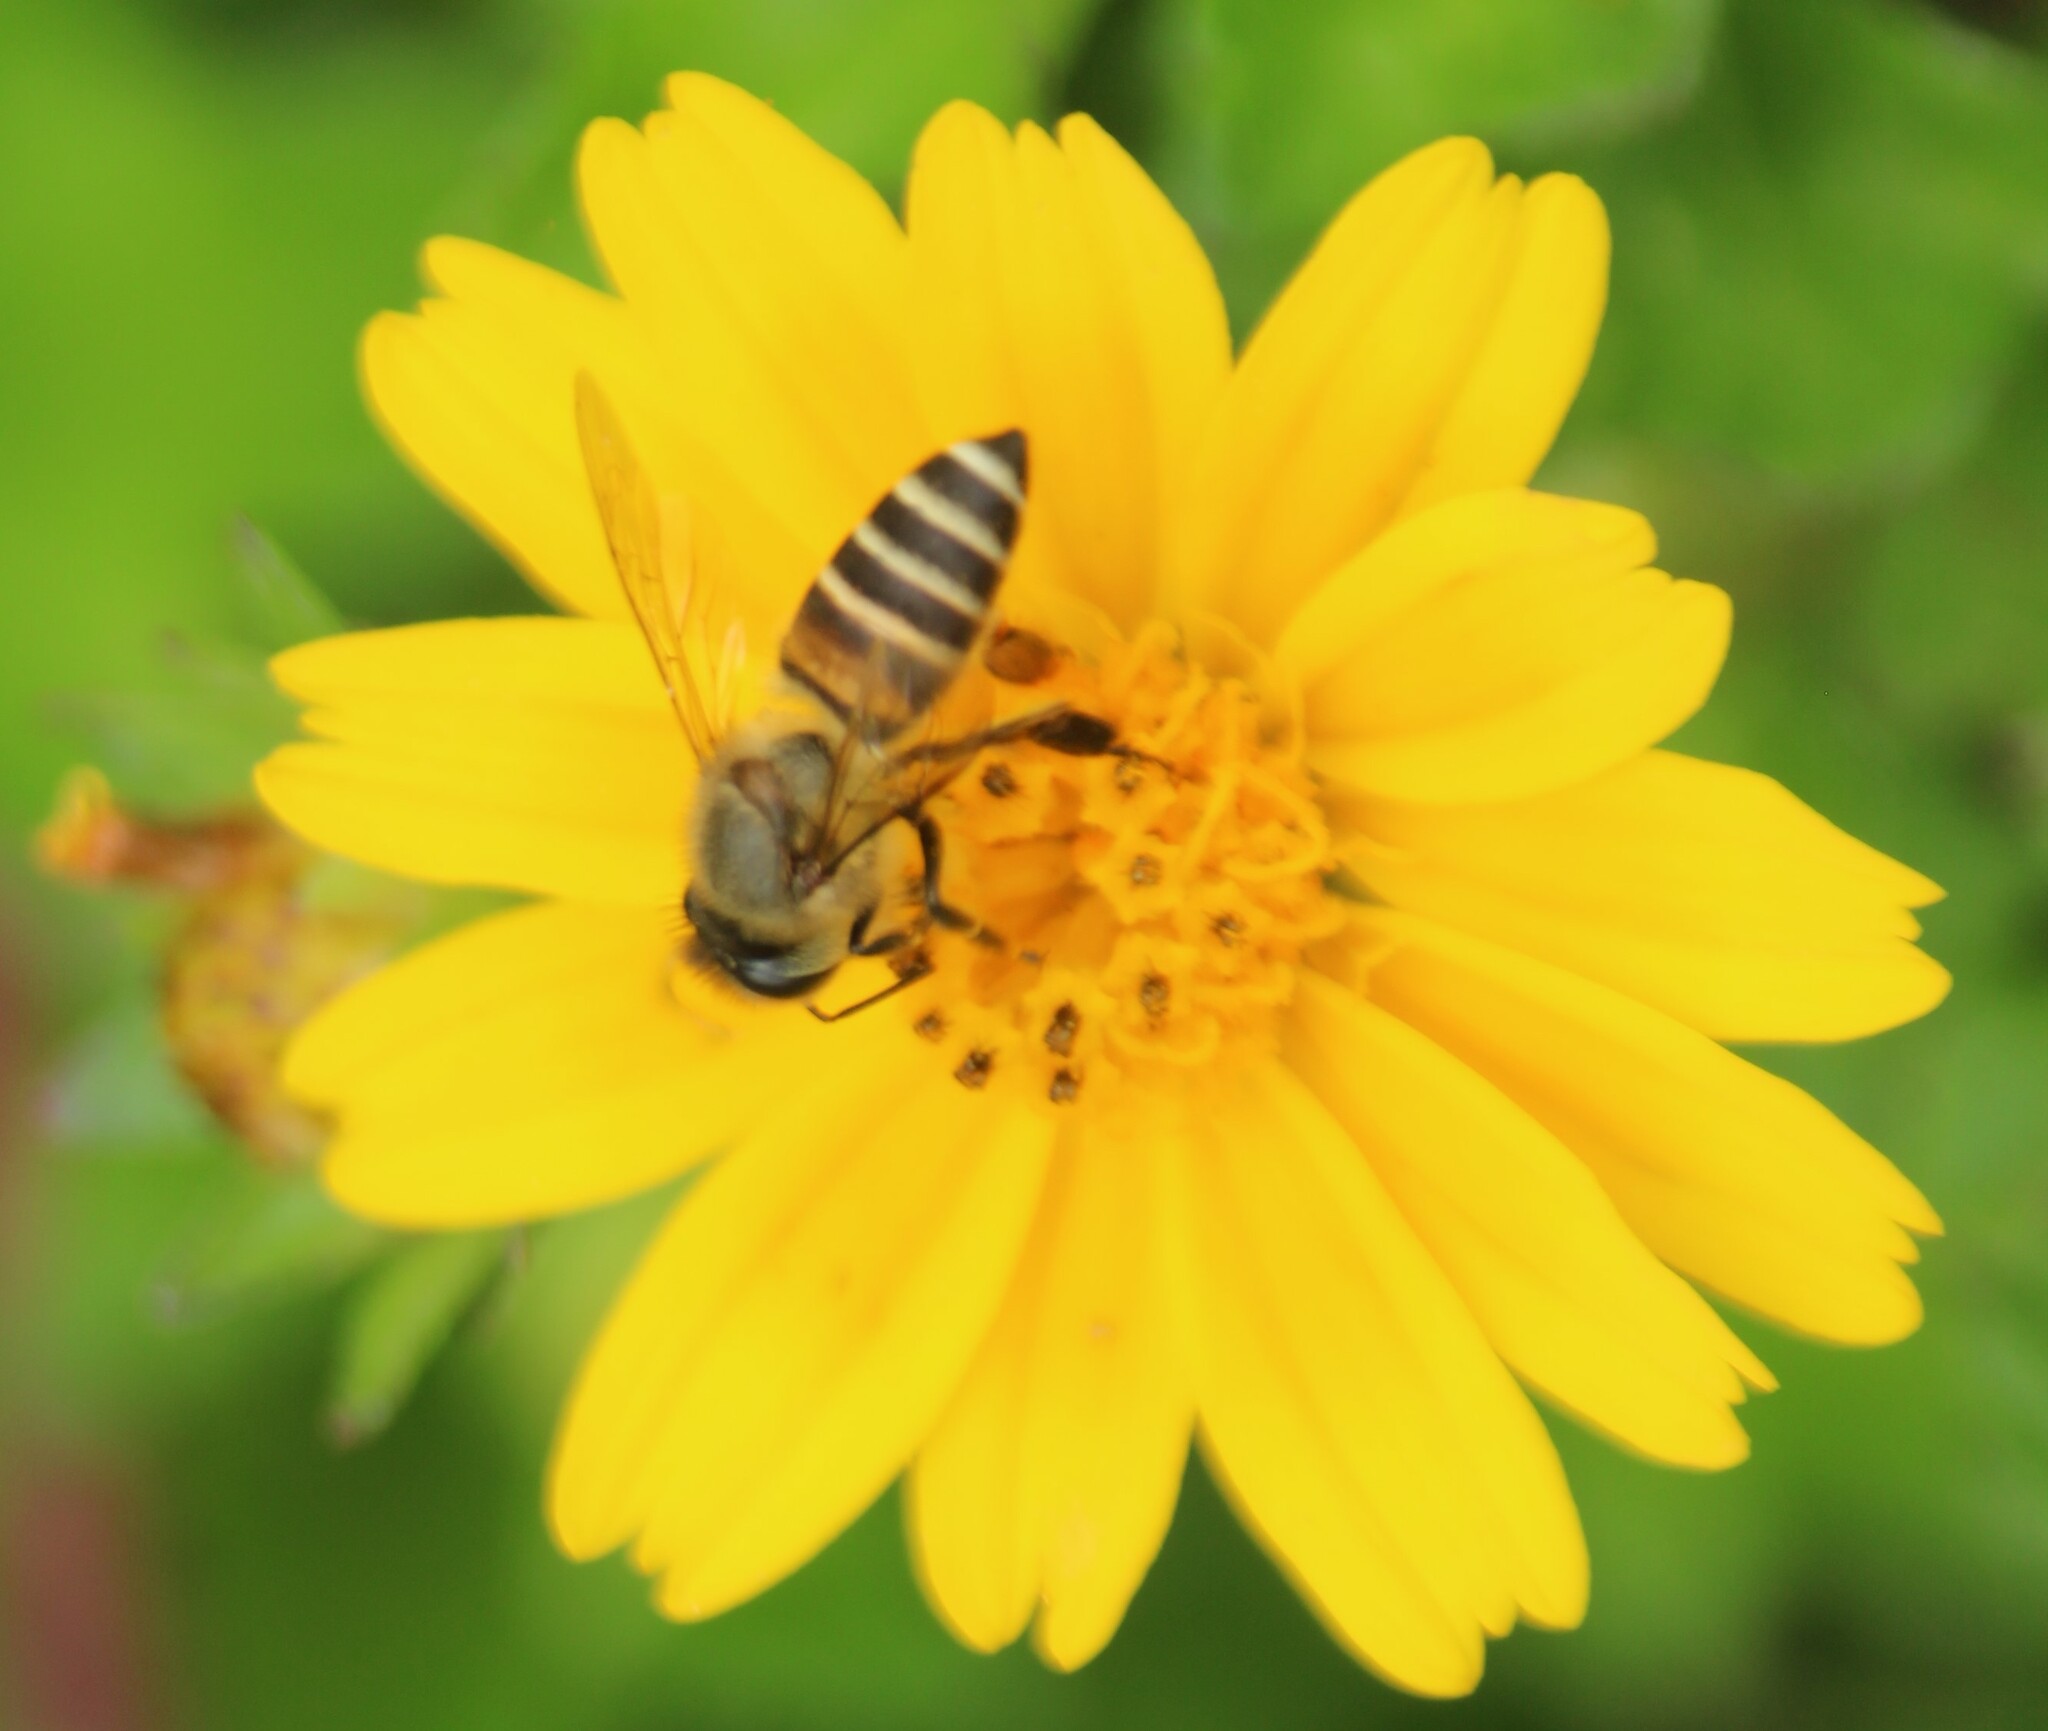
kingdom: Animalia
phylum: Arthropoda
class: Insecta
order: Hymenoptera
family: Apidae
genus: Apis
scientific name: Apis cerana
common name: Honey bee
